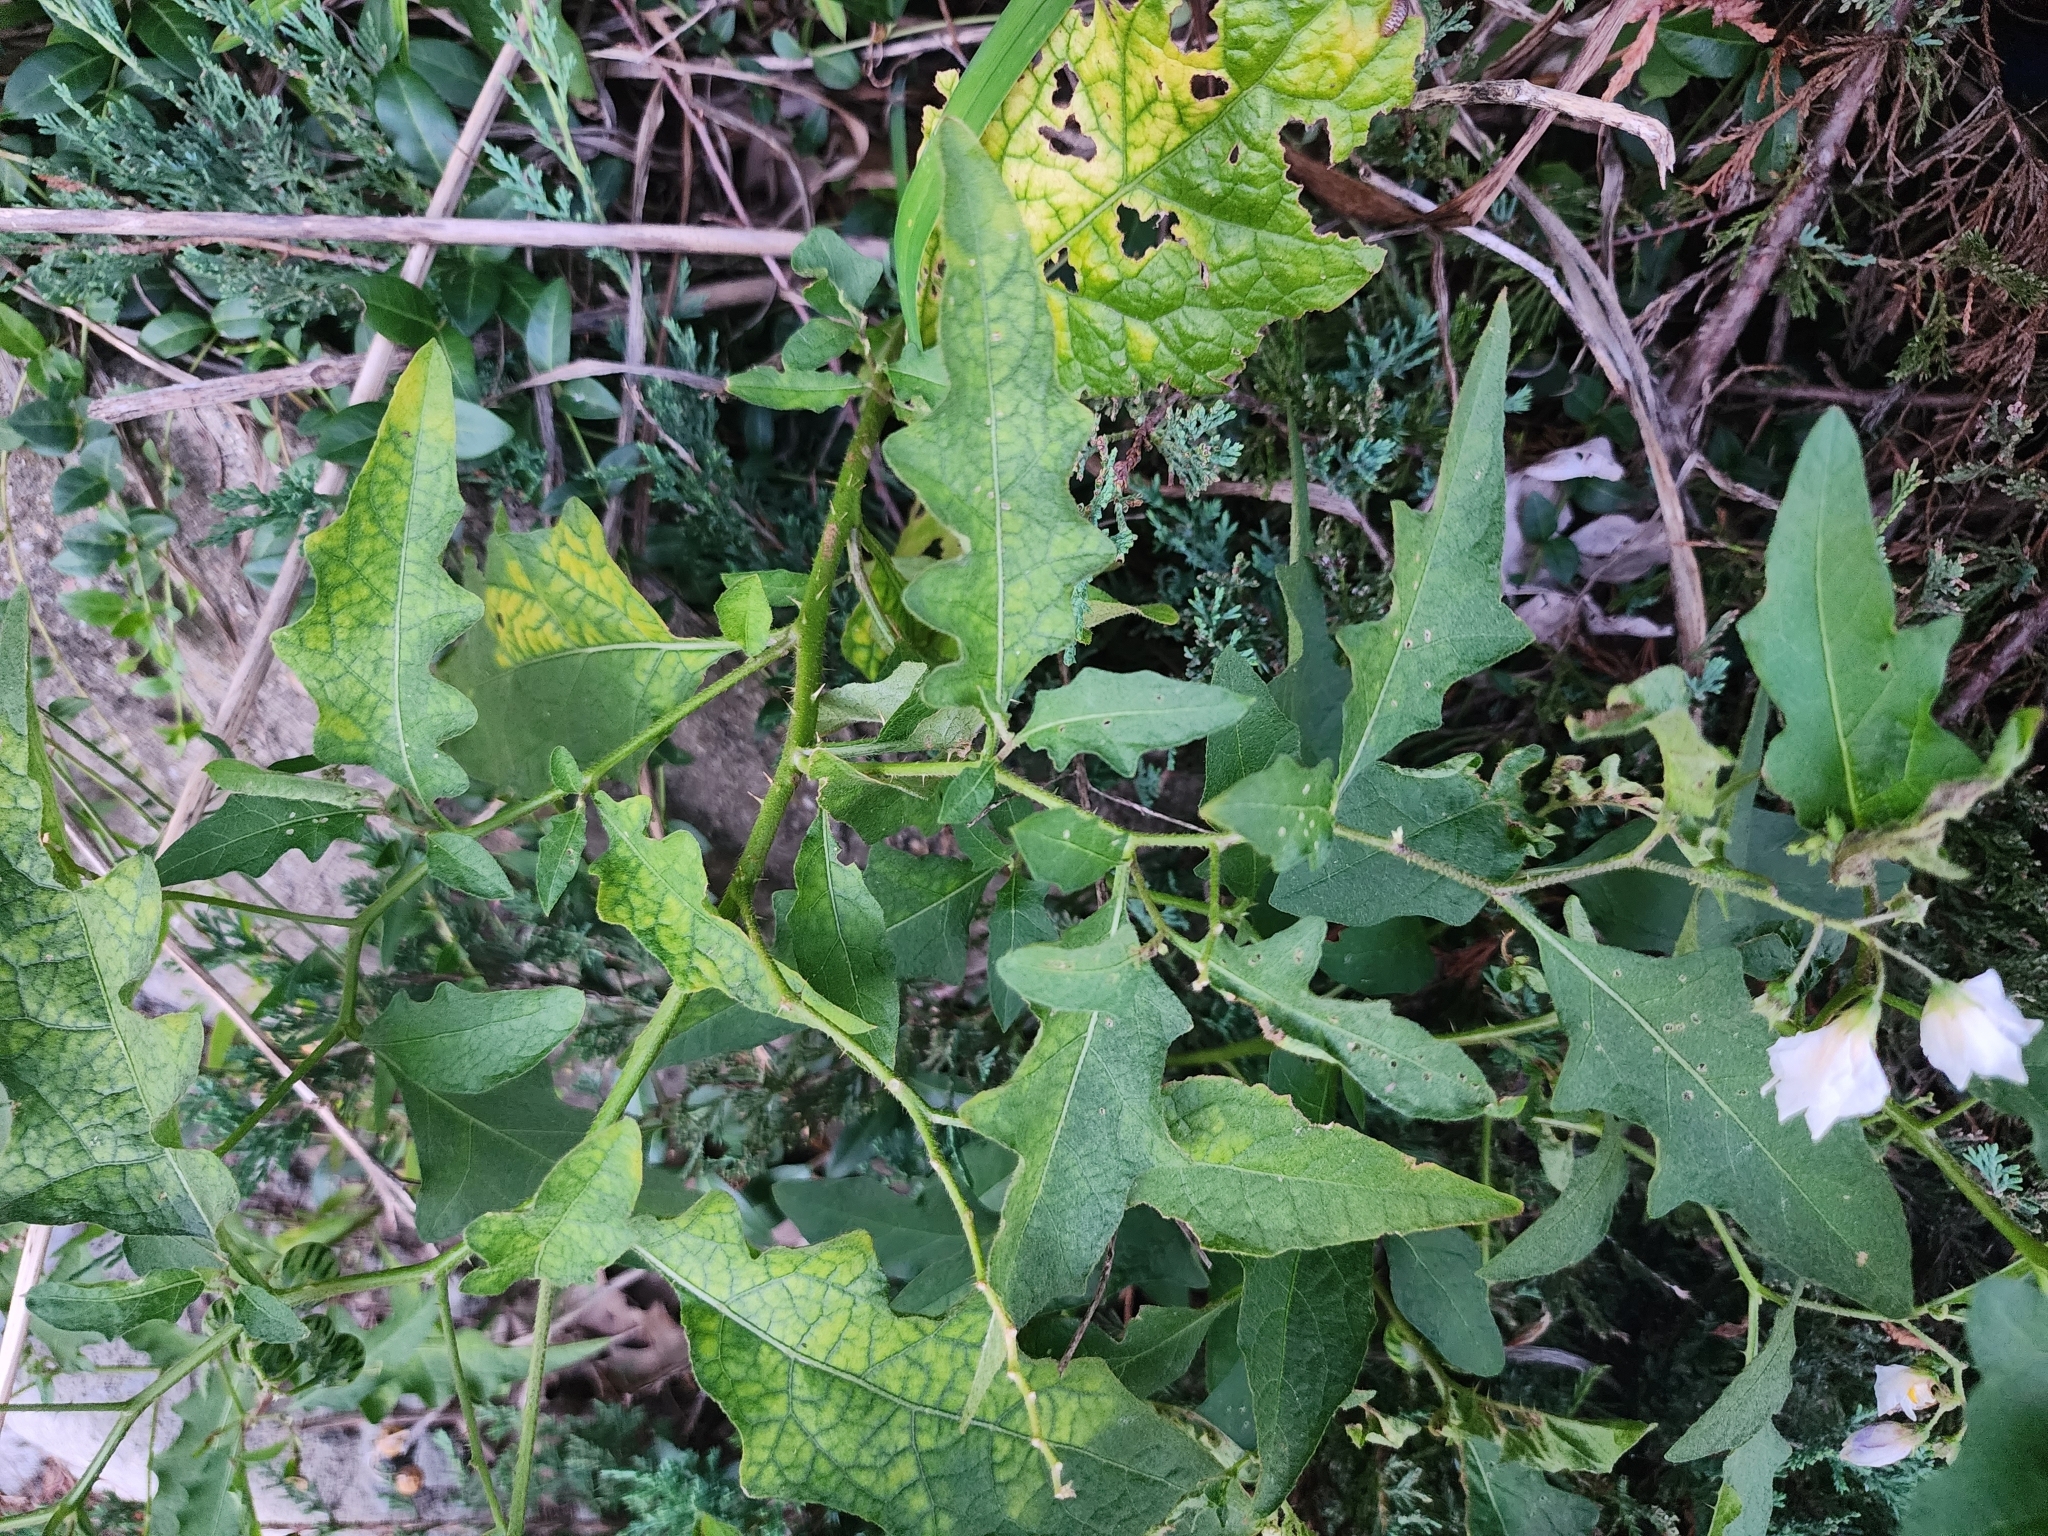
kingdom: Plantae
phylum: Tracheophyta
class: Magnoliopsida
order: Solanales
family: Solanaceae
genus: Solanum
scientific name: Solanum carolinense
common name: Horse-nettle
